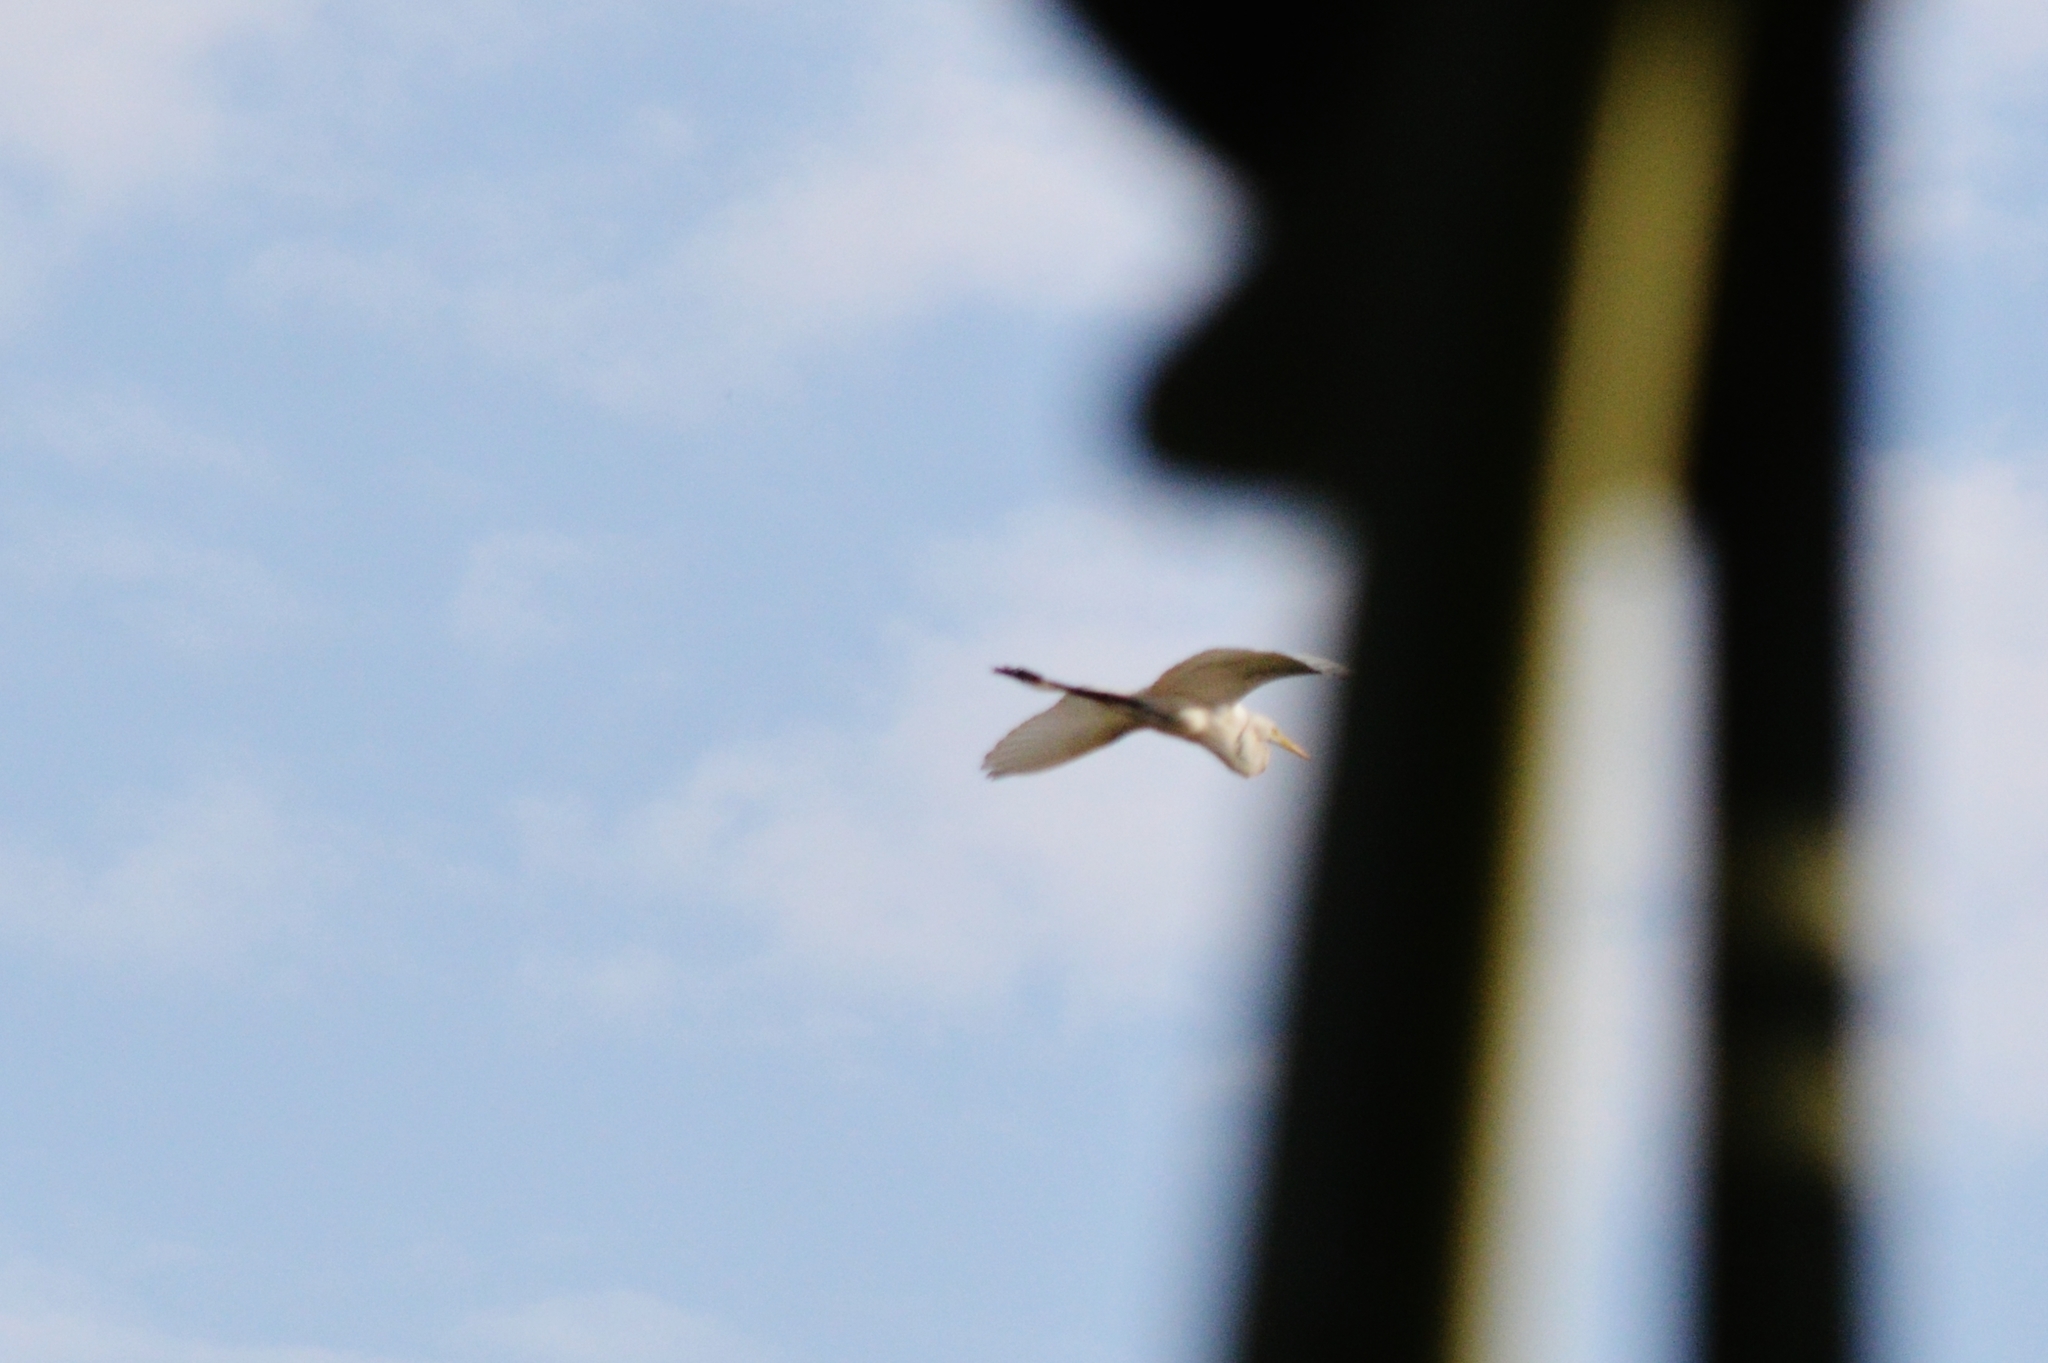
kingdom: Animalia
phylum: Chordata
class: Aves
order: Pelecaniformes
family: Ardeidae
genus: Ardea
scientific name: Ardea alba
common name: Great egret
